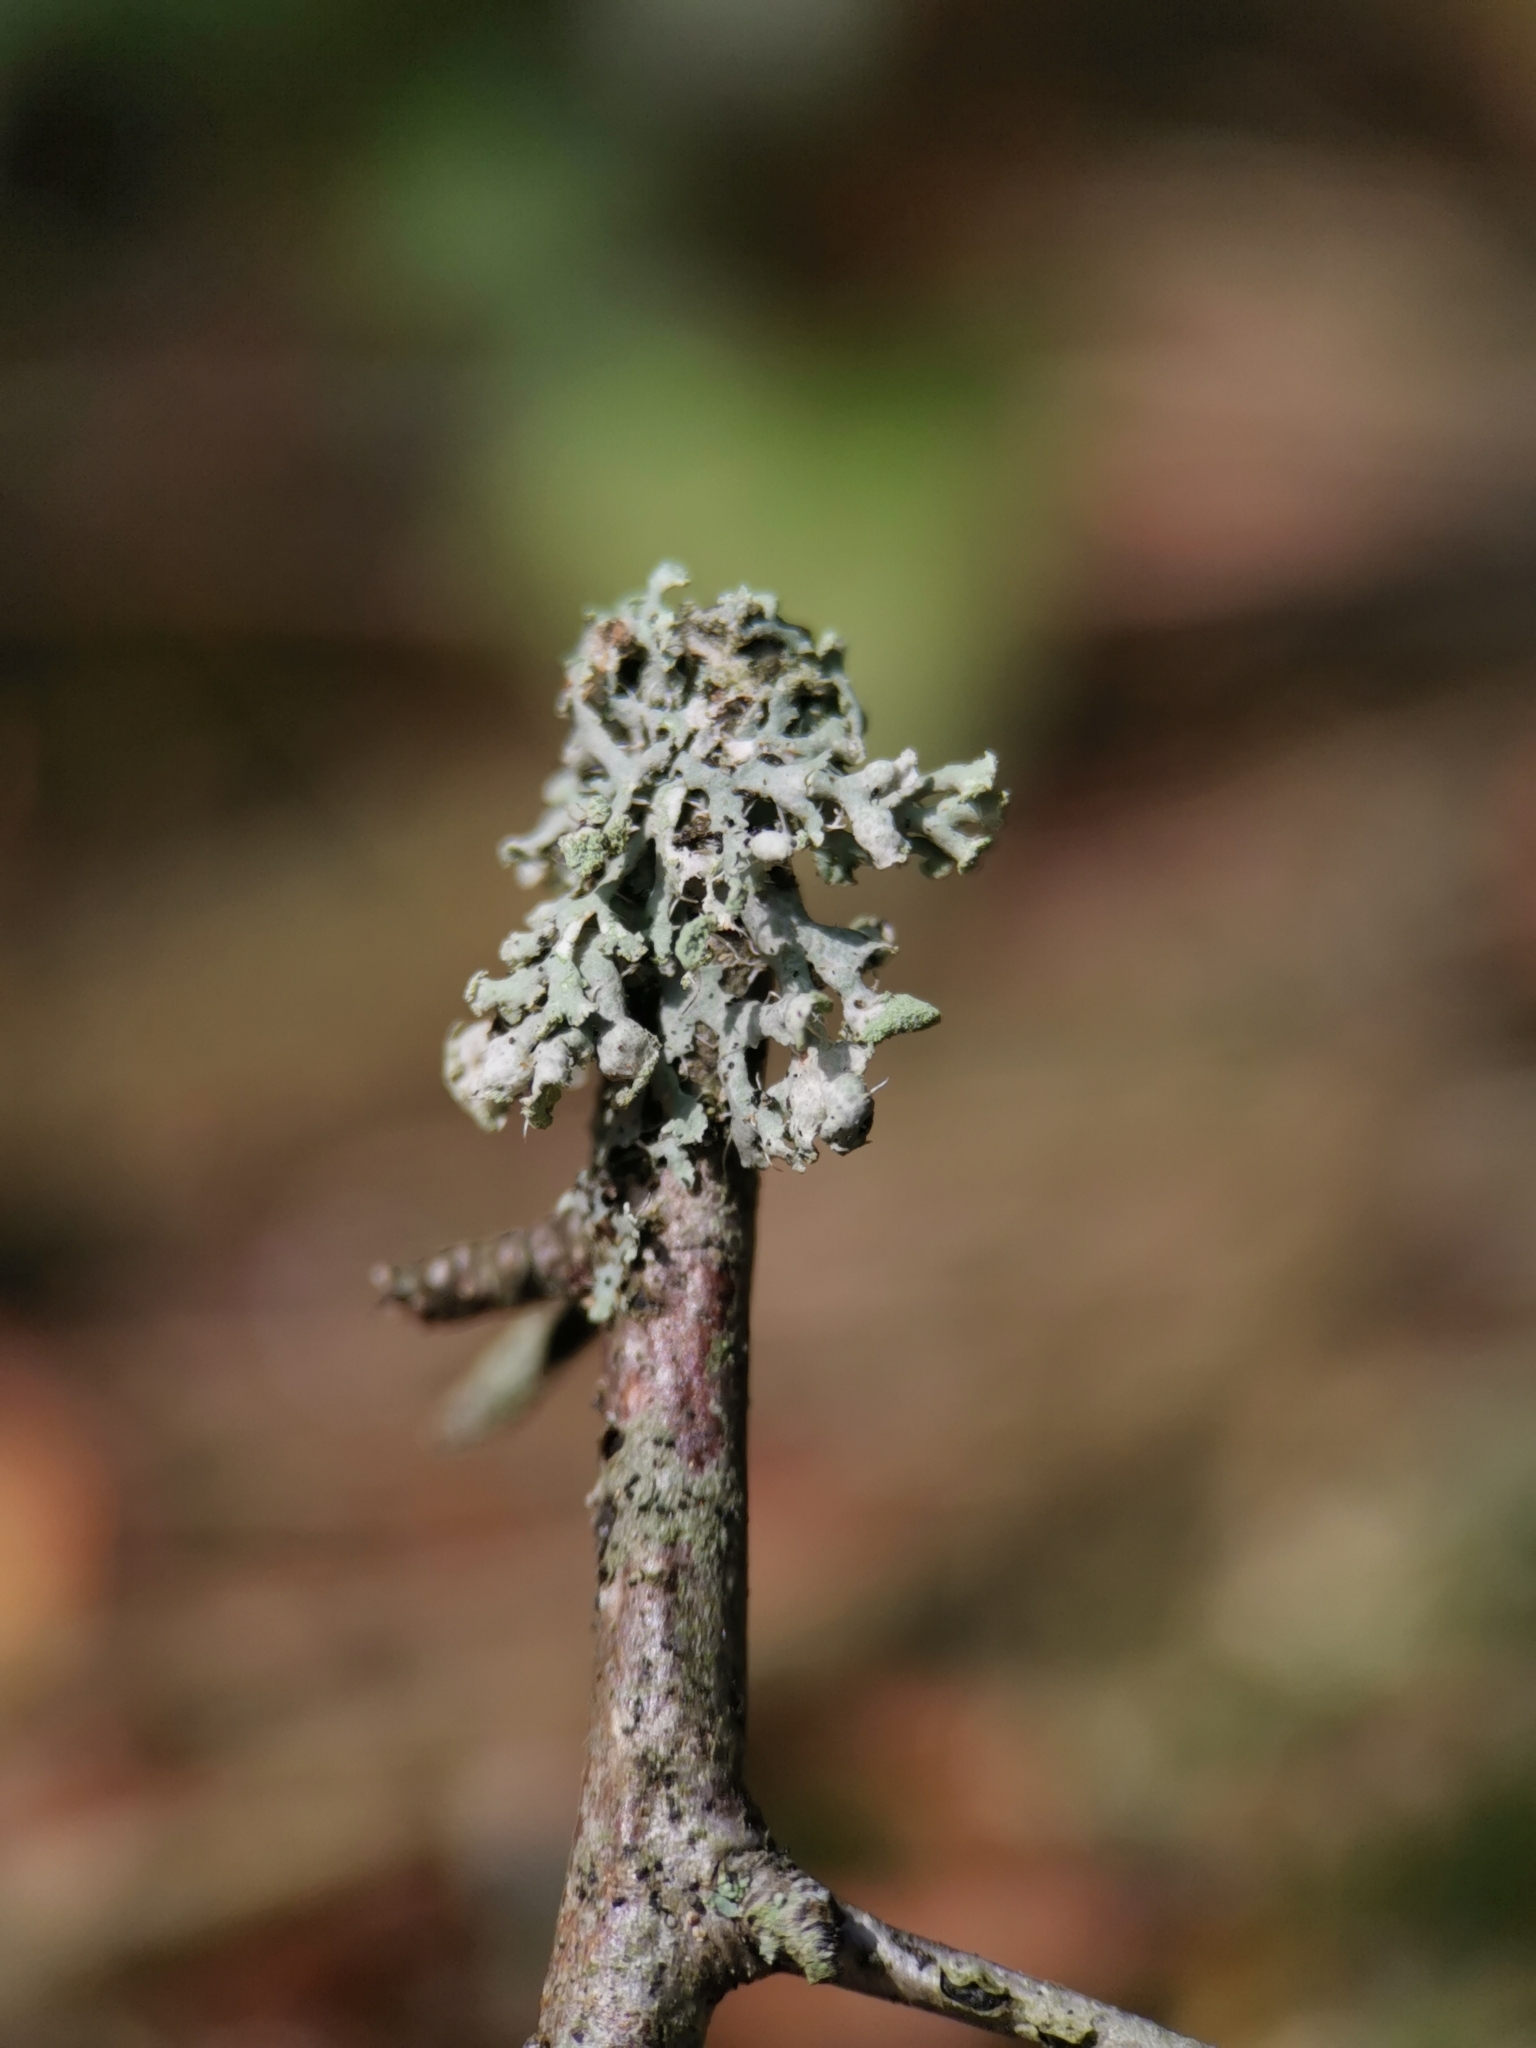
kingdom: Fungi
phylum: Ascomycota
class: Lecanoromycetes
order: Caliciales
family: Physciaceae
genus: Physcia
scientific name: Physcia tenella
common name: Fringed rosette lichen
